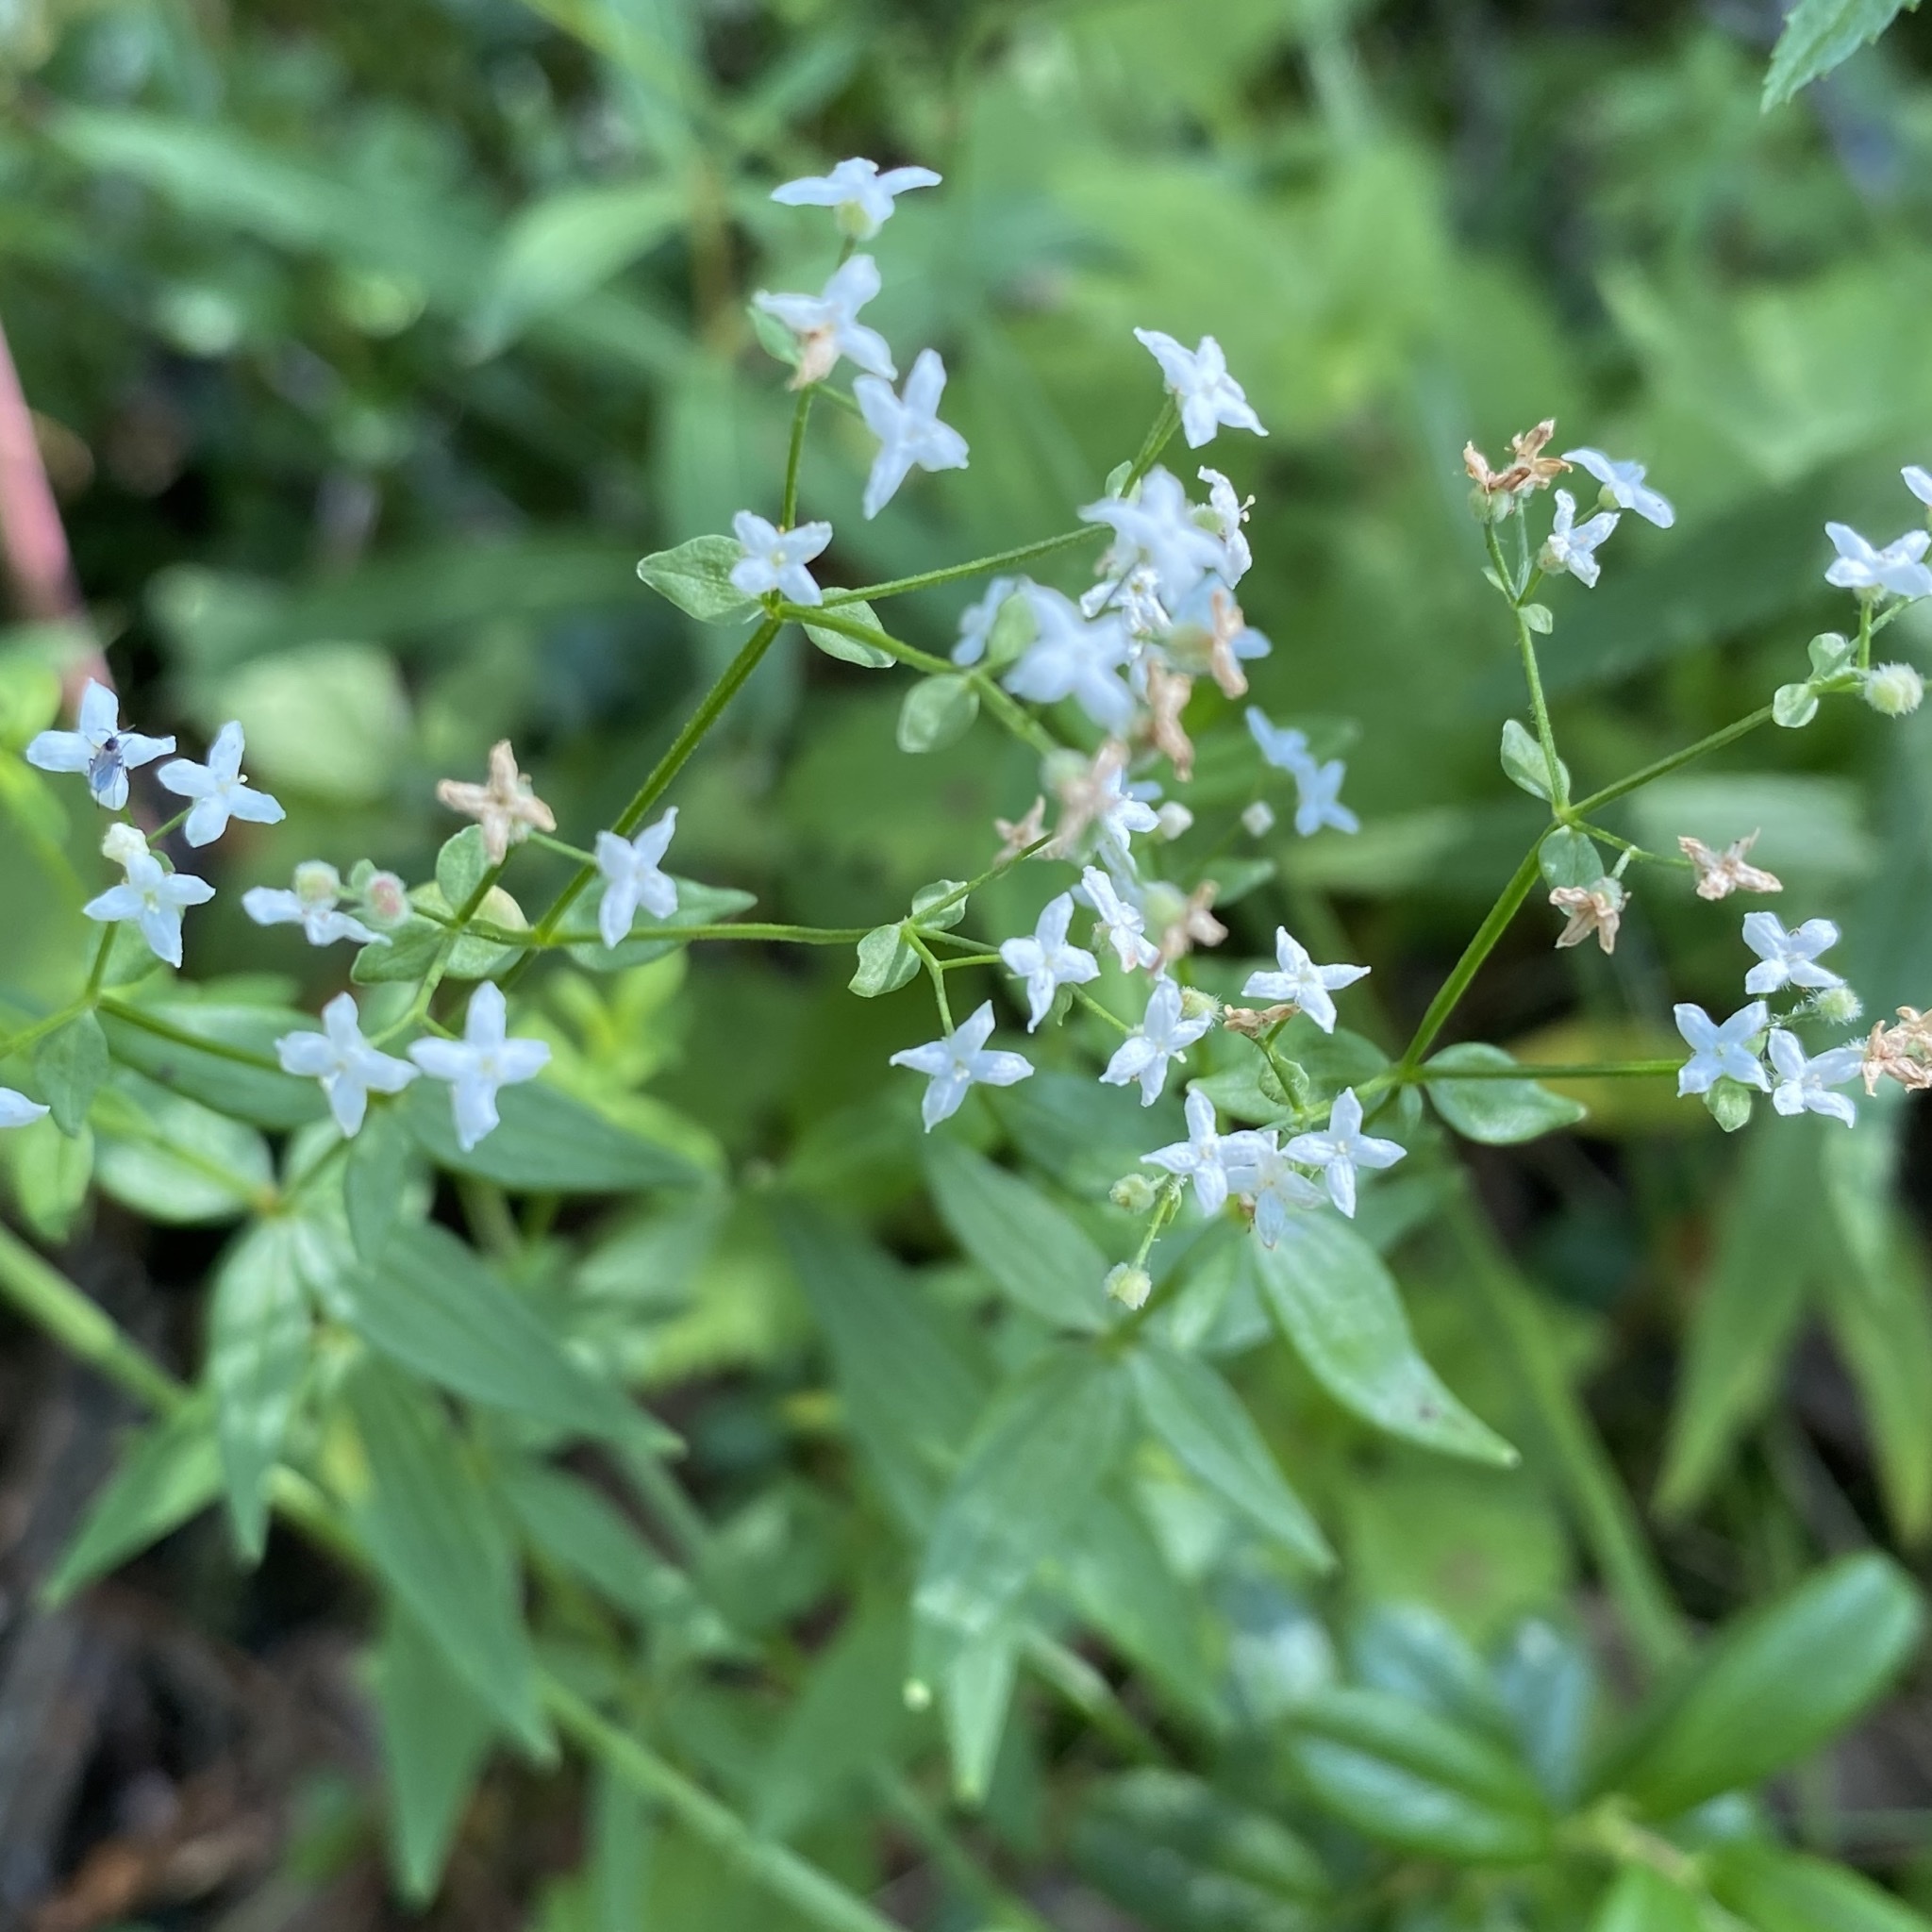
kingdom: Plantae
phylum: Tracheophyta
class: Magnoliopsida
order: Gentianales
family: Rubiaceae
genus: Galium
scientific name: Galium boreale
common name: Northern bedstraw
